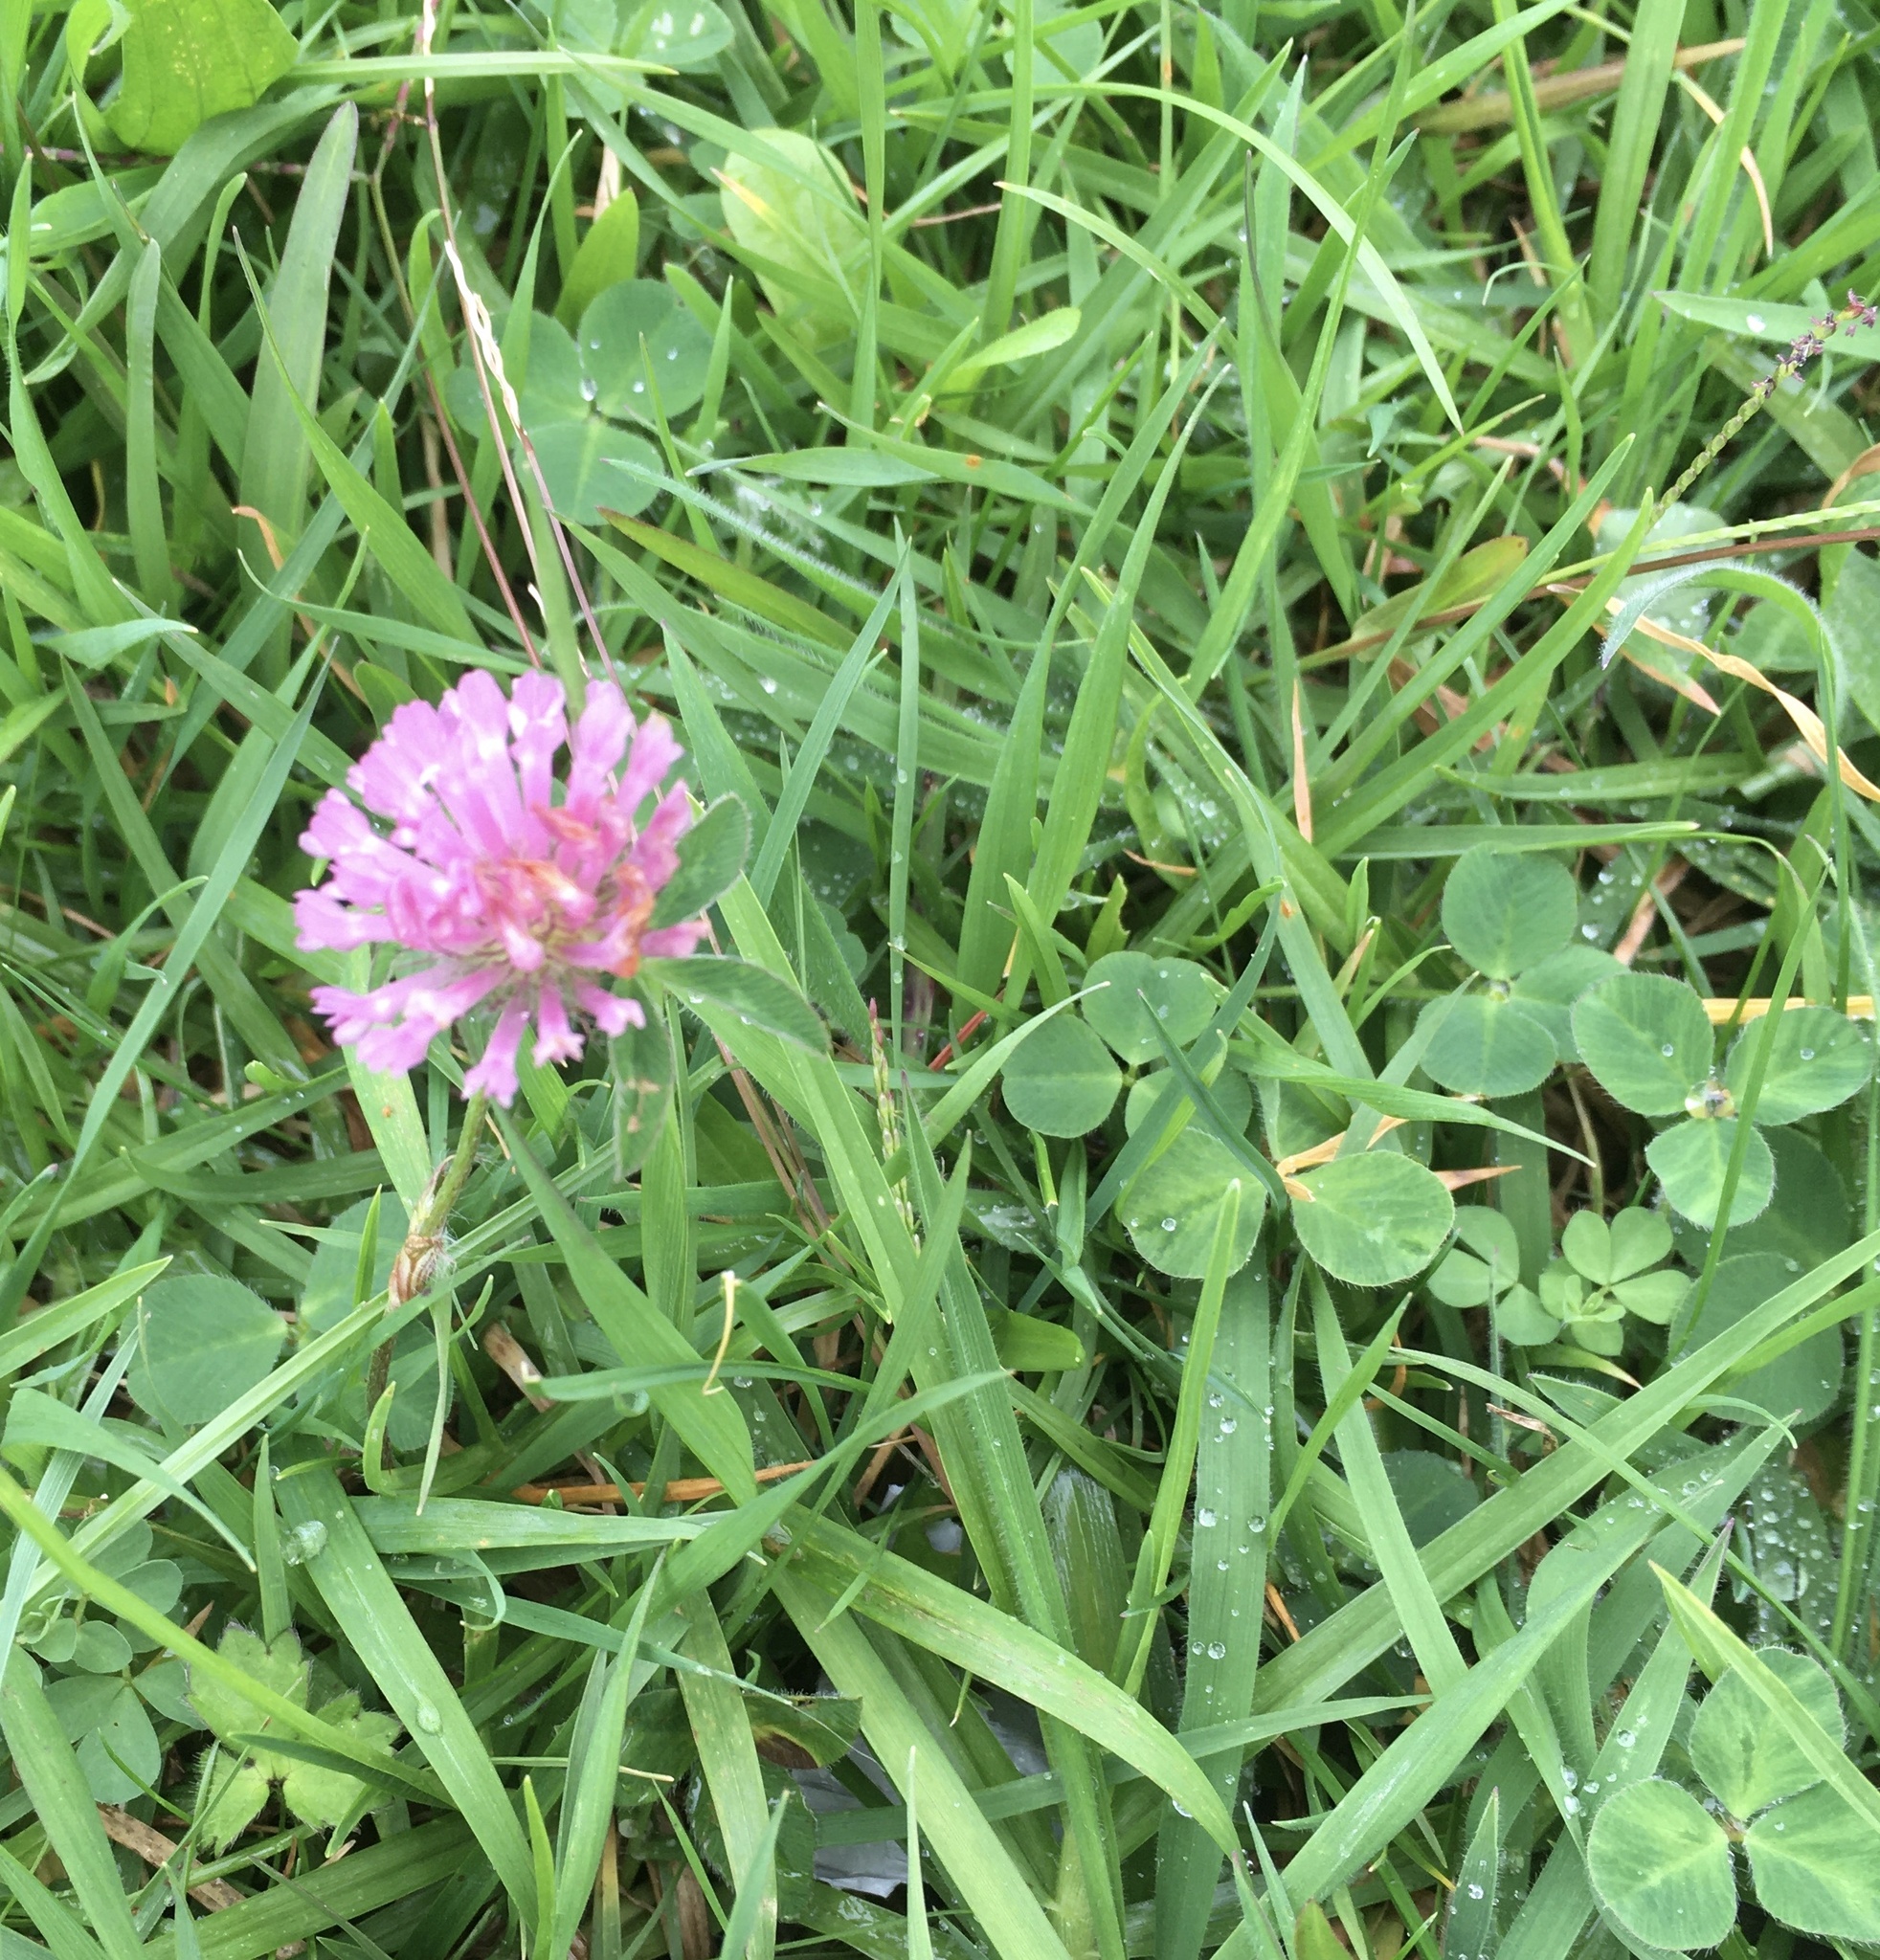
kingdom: Plantae
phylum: Tracheophyta
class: Magnoliopsida
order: Fabales
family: Fabaceae
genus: Trifolium
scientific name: Trifolium pratense
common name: Red clover
